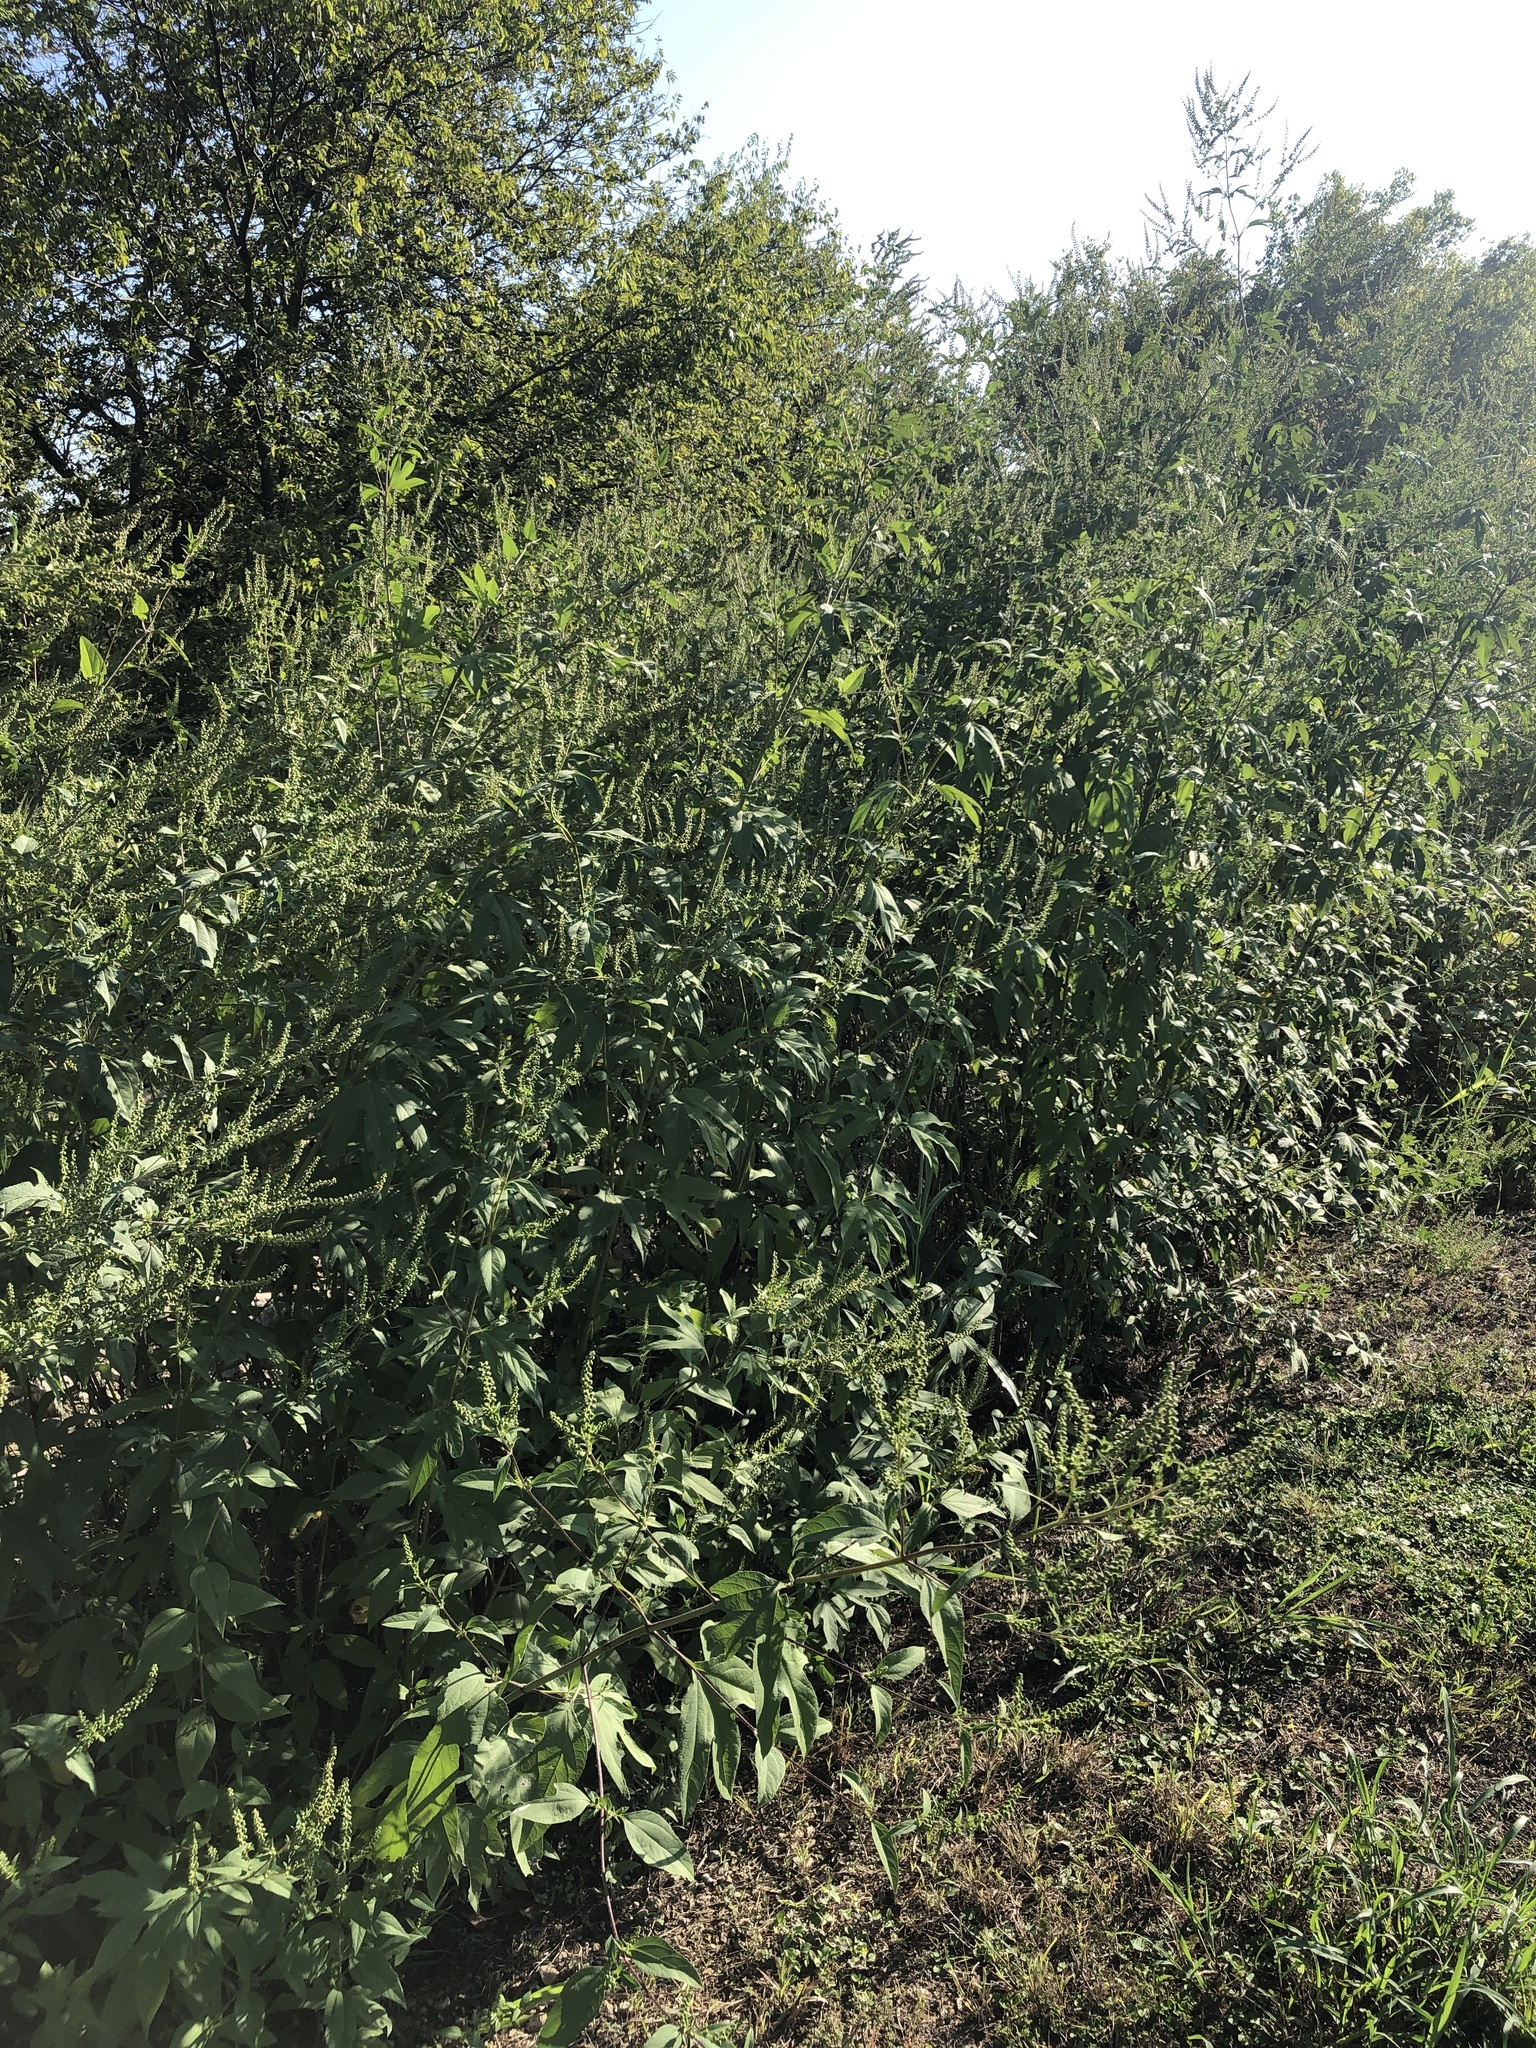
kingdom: Plantae
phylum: Tracheophyta
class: Magnoliopsida
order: Asterales
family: Asteraceae
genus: Ambrosia
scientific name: Ambrosia trifida
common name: Giant ragweed
